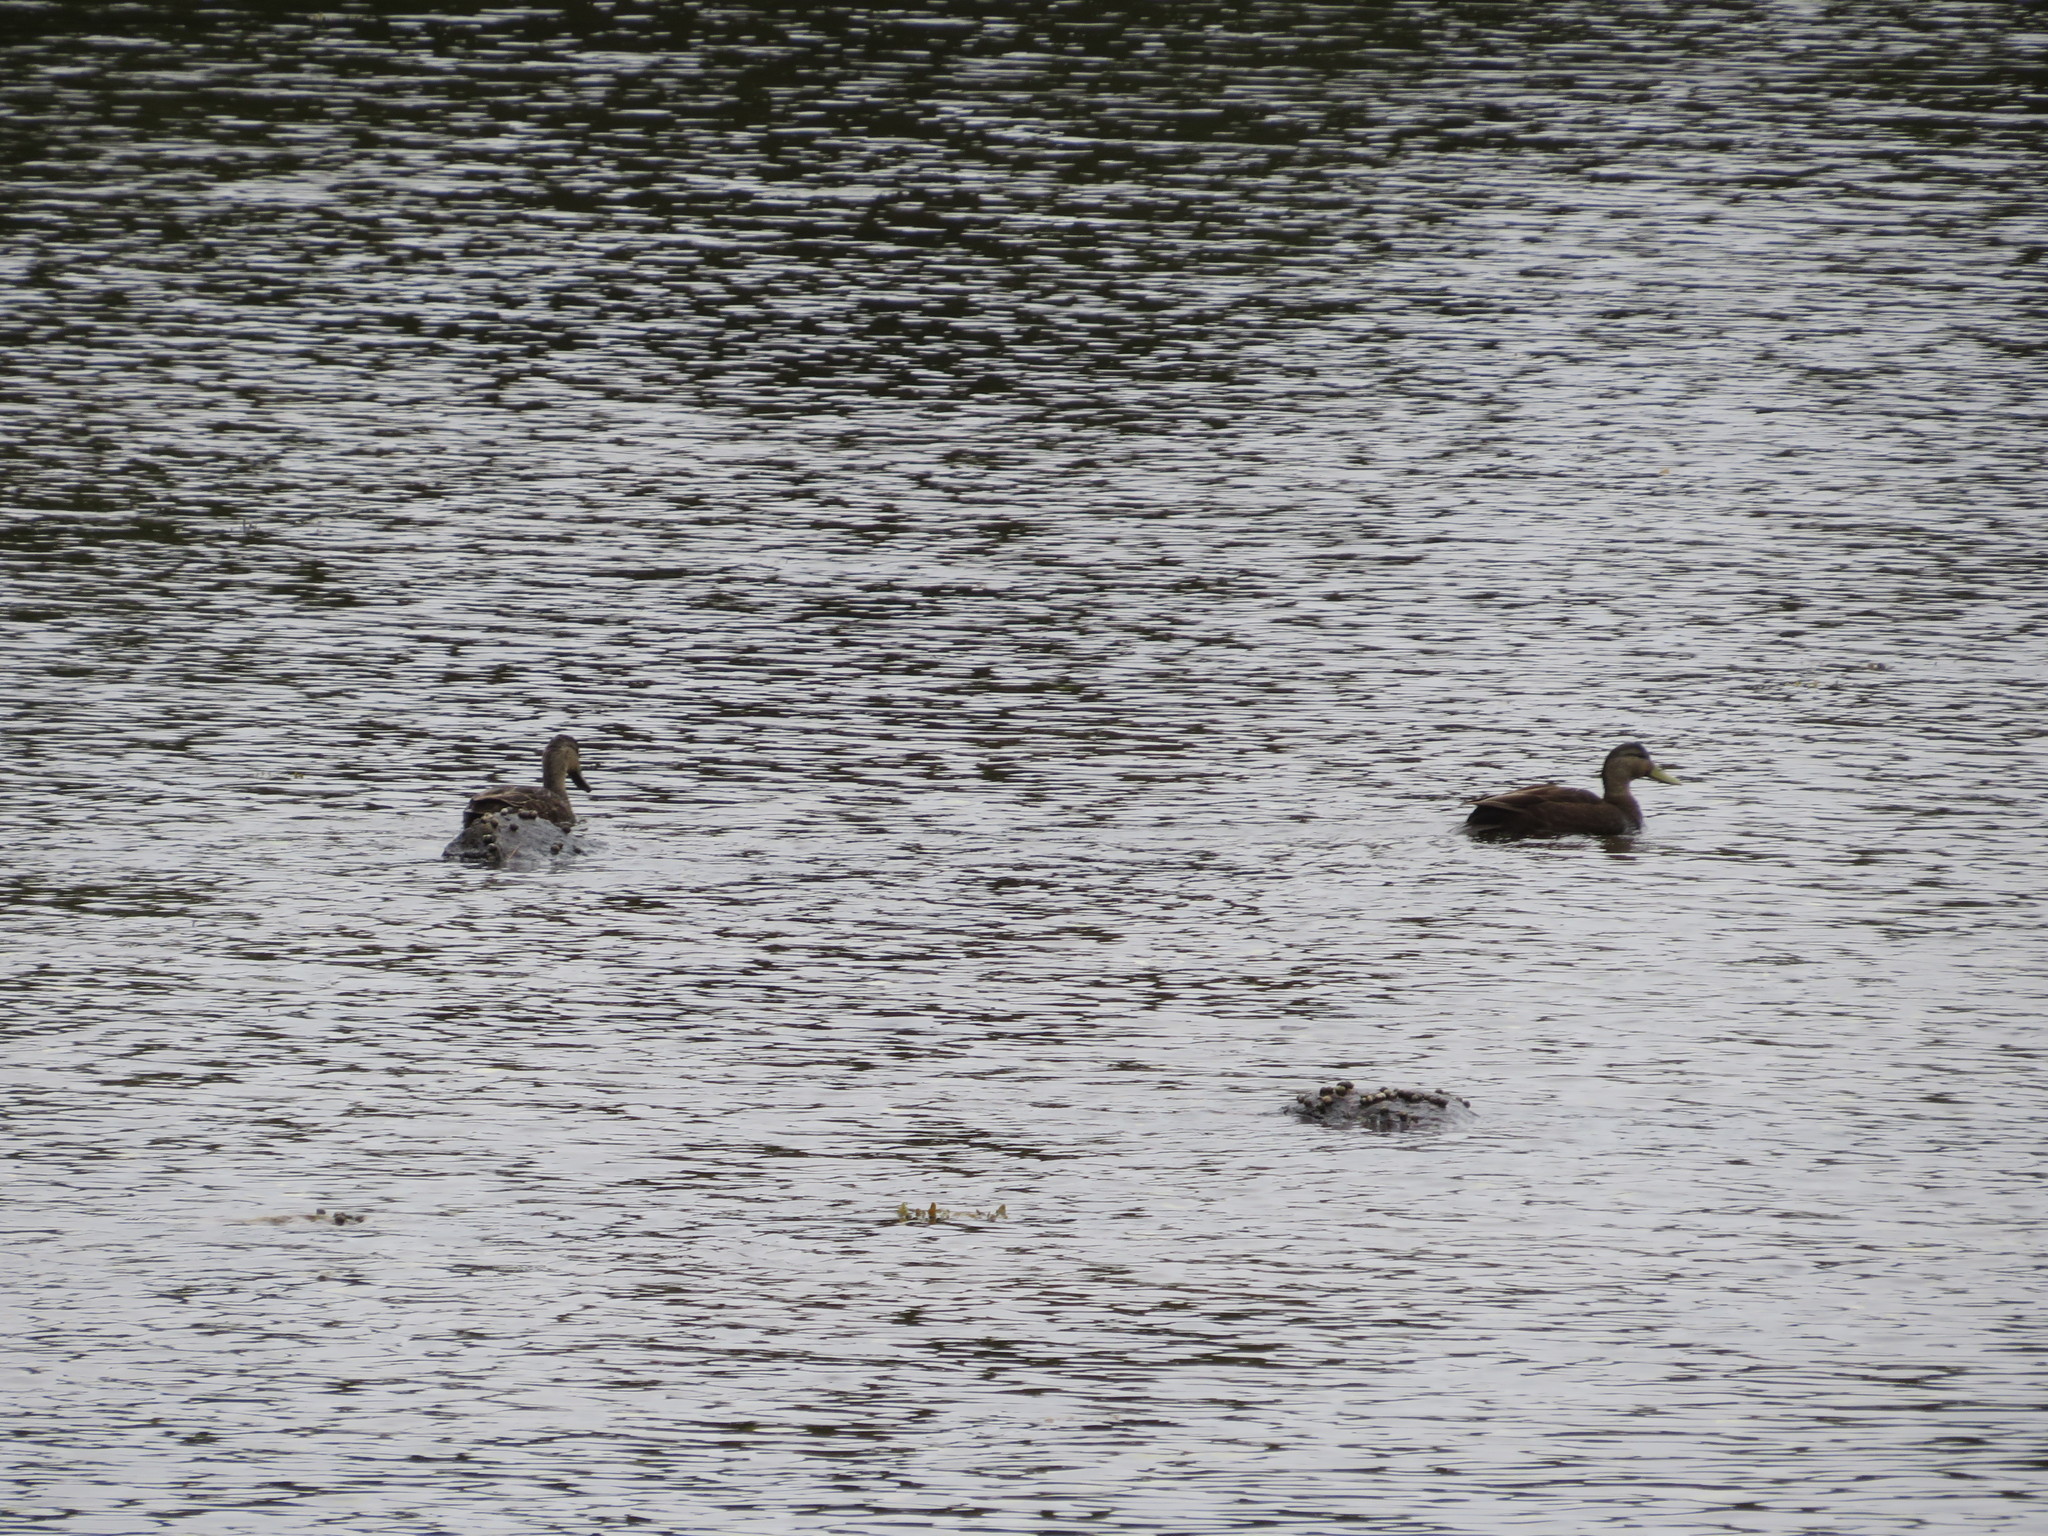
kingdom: Animalia
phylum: Chordata
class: Aves
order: Anseriformes
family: Anatidae
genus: Anas
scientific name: Anas rubripes
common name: American black duck
